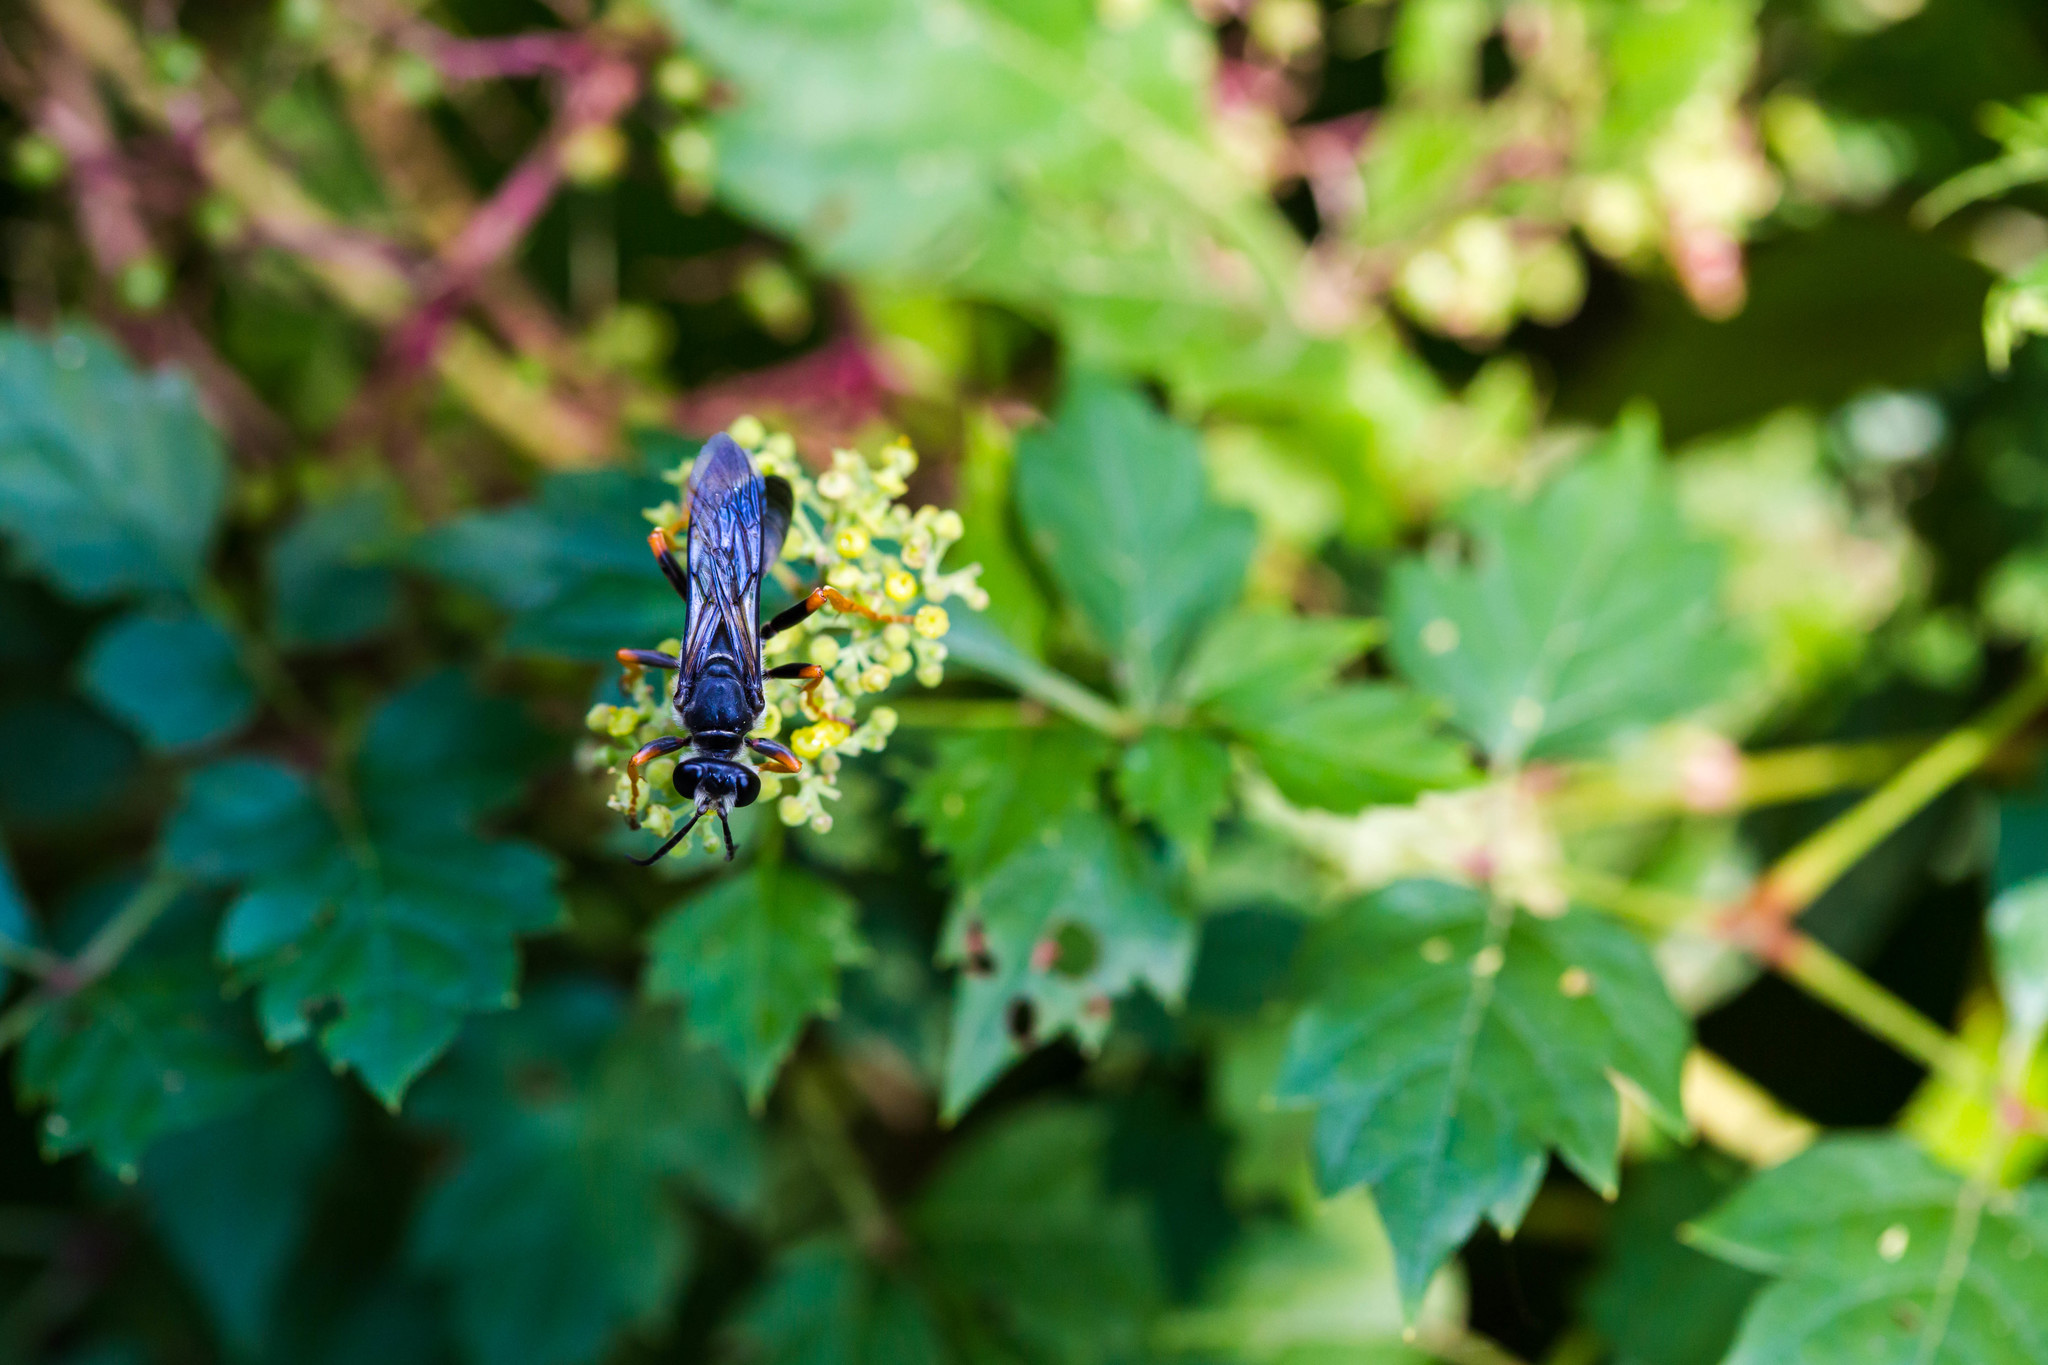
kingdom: Animalia
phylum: Arthropoda
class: Insecta
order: Hymenoptera
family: Sphecidae
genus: Sphex
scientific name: Sphex nudus
